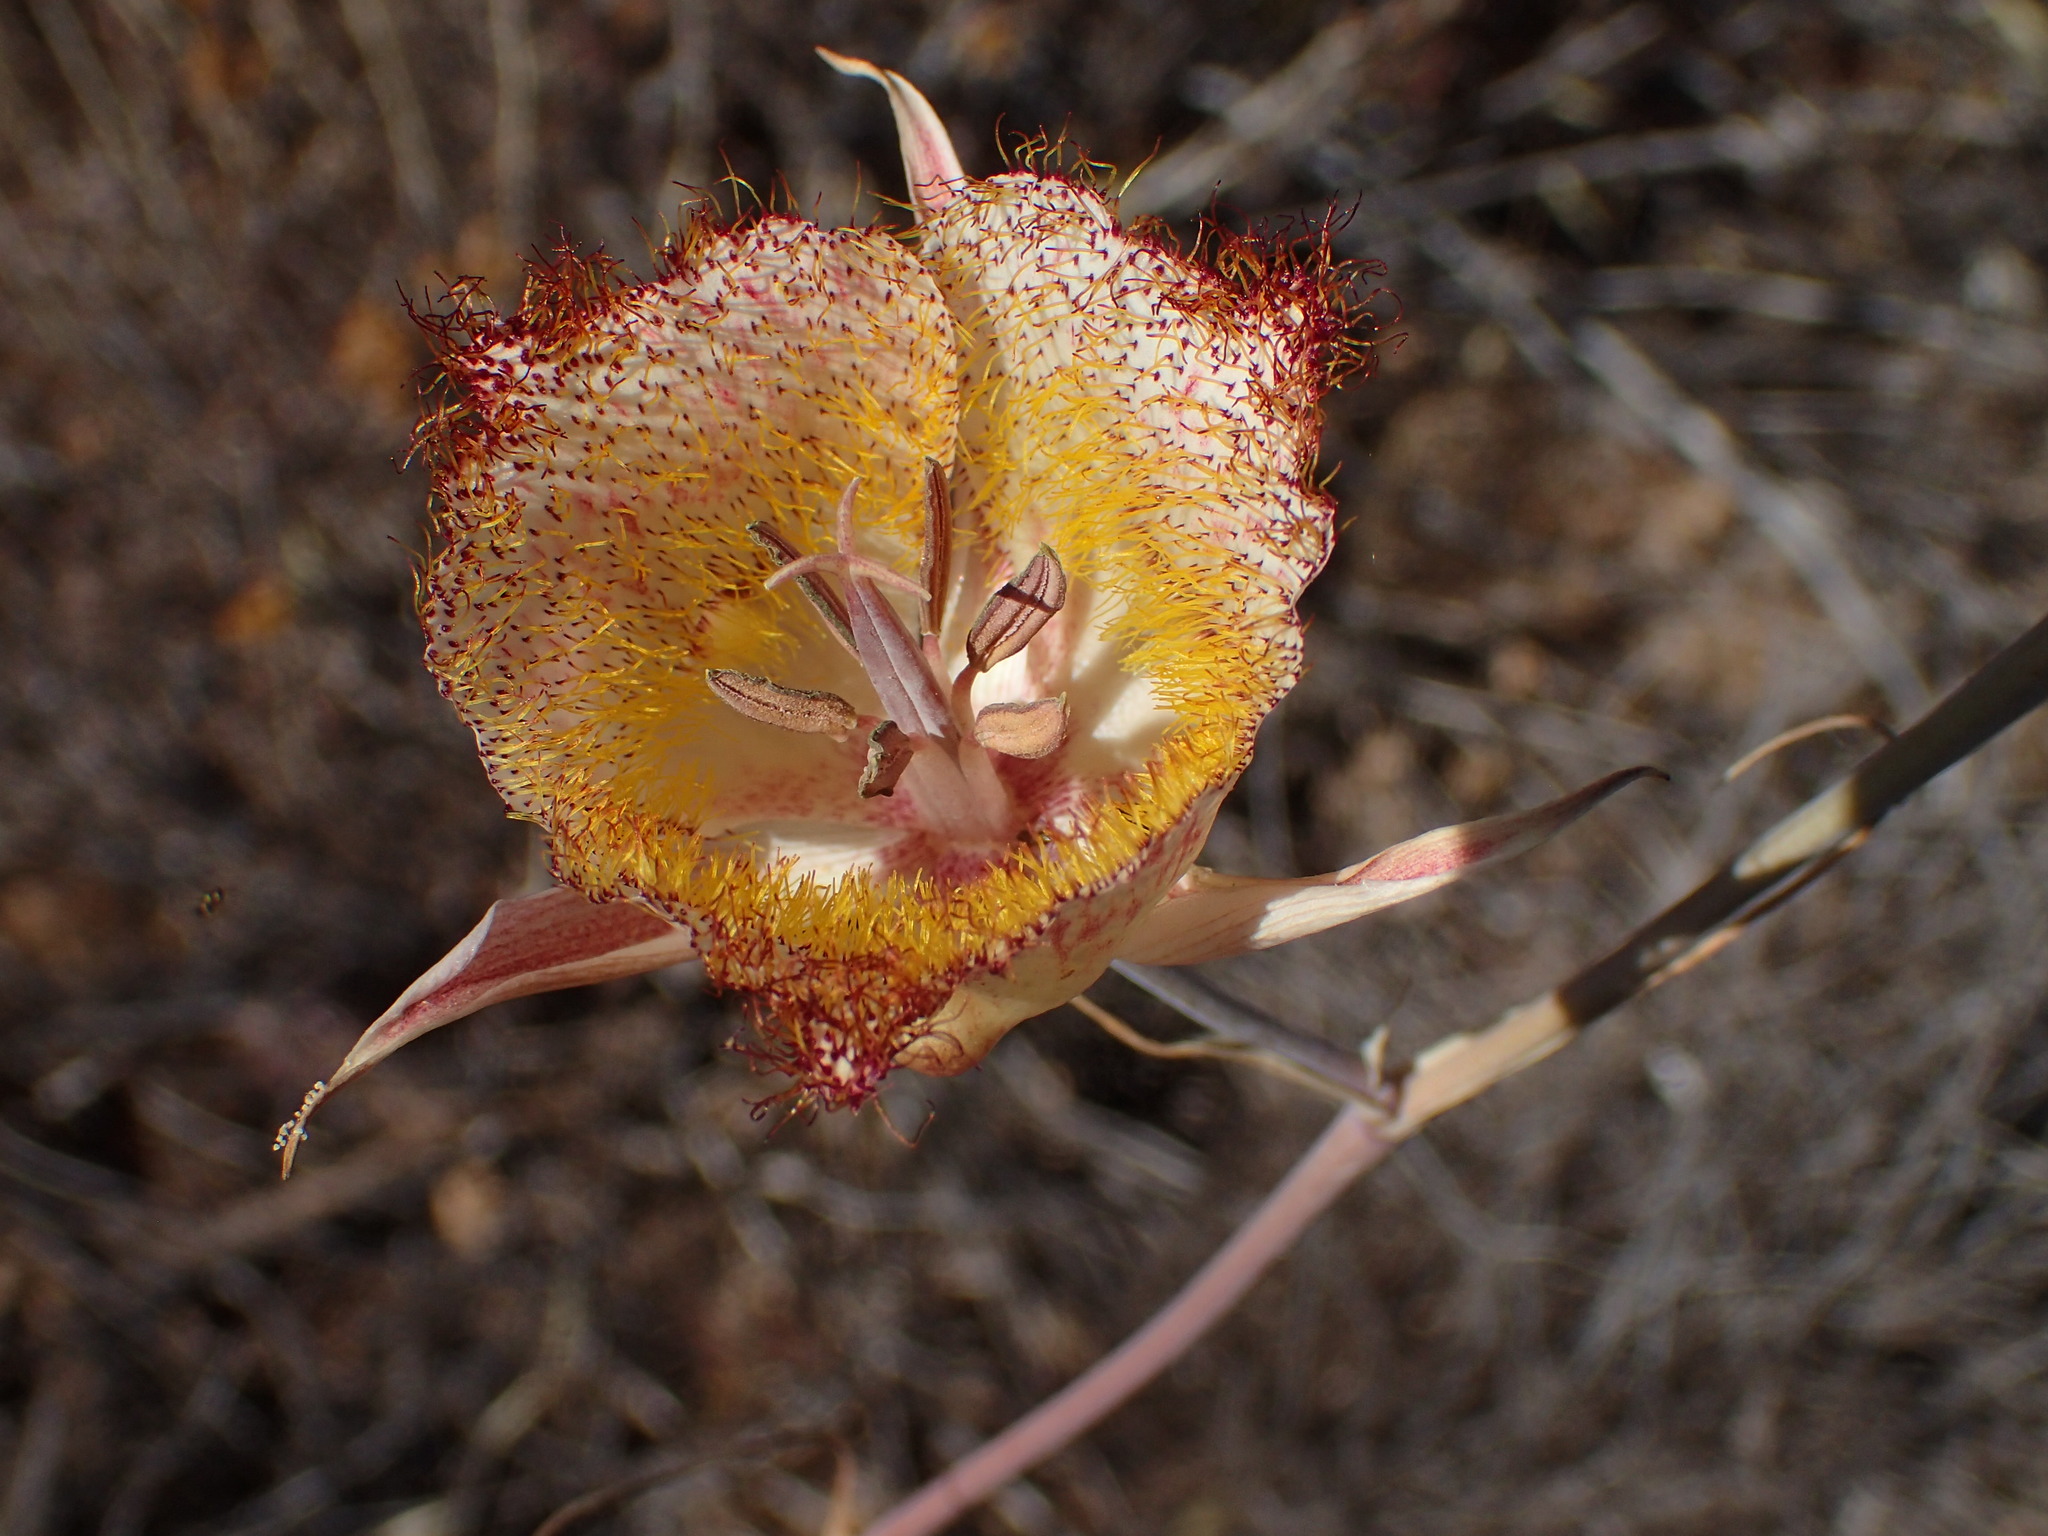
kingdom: Plantae
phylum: Tracheophyta
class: Liliopsida
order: Liliales
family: Liliaceae
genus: Calochortus
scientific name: Calochortus fimbriatus
